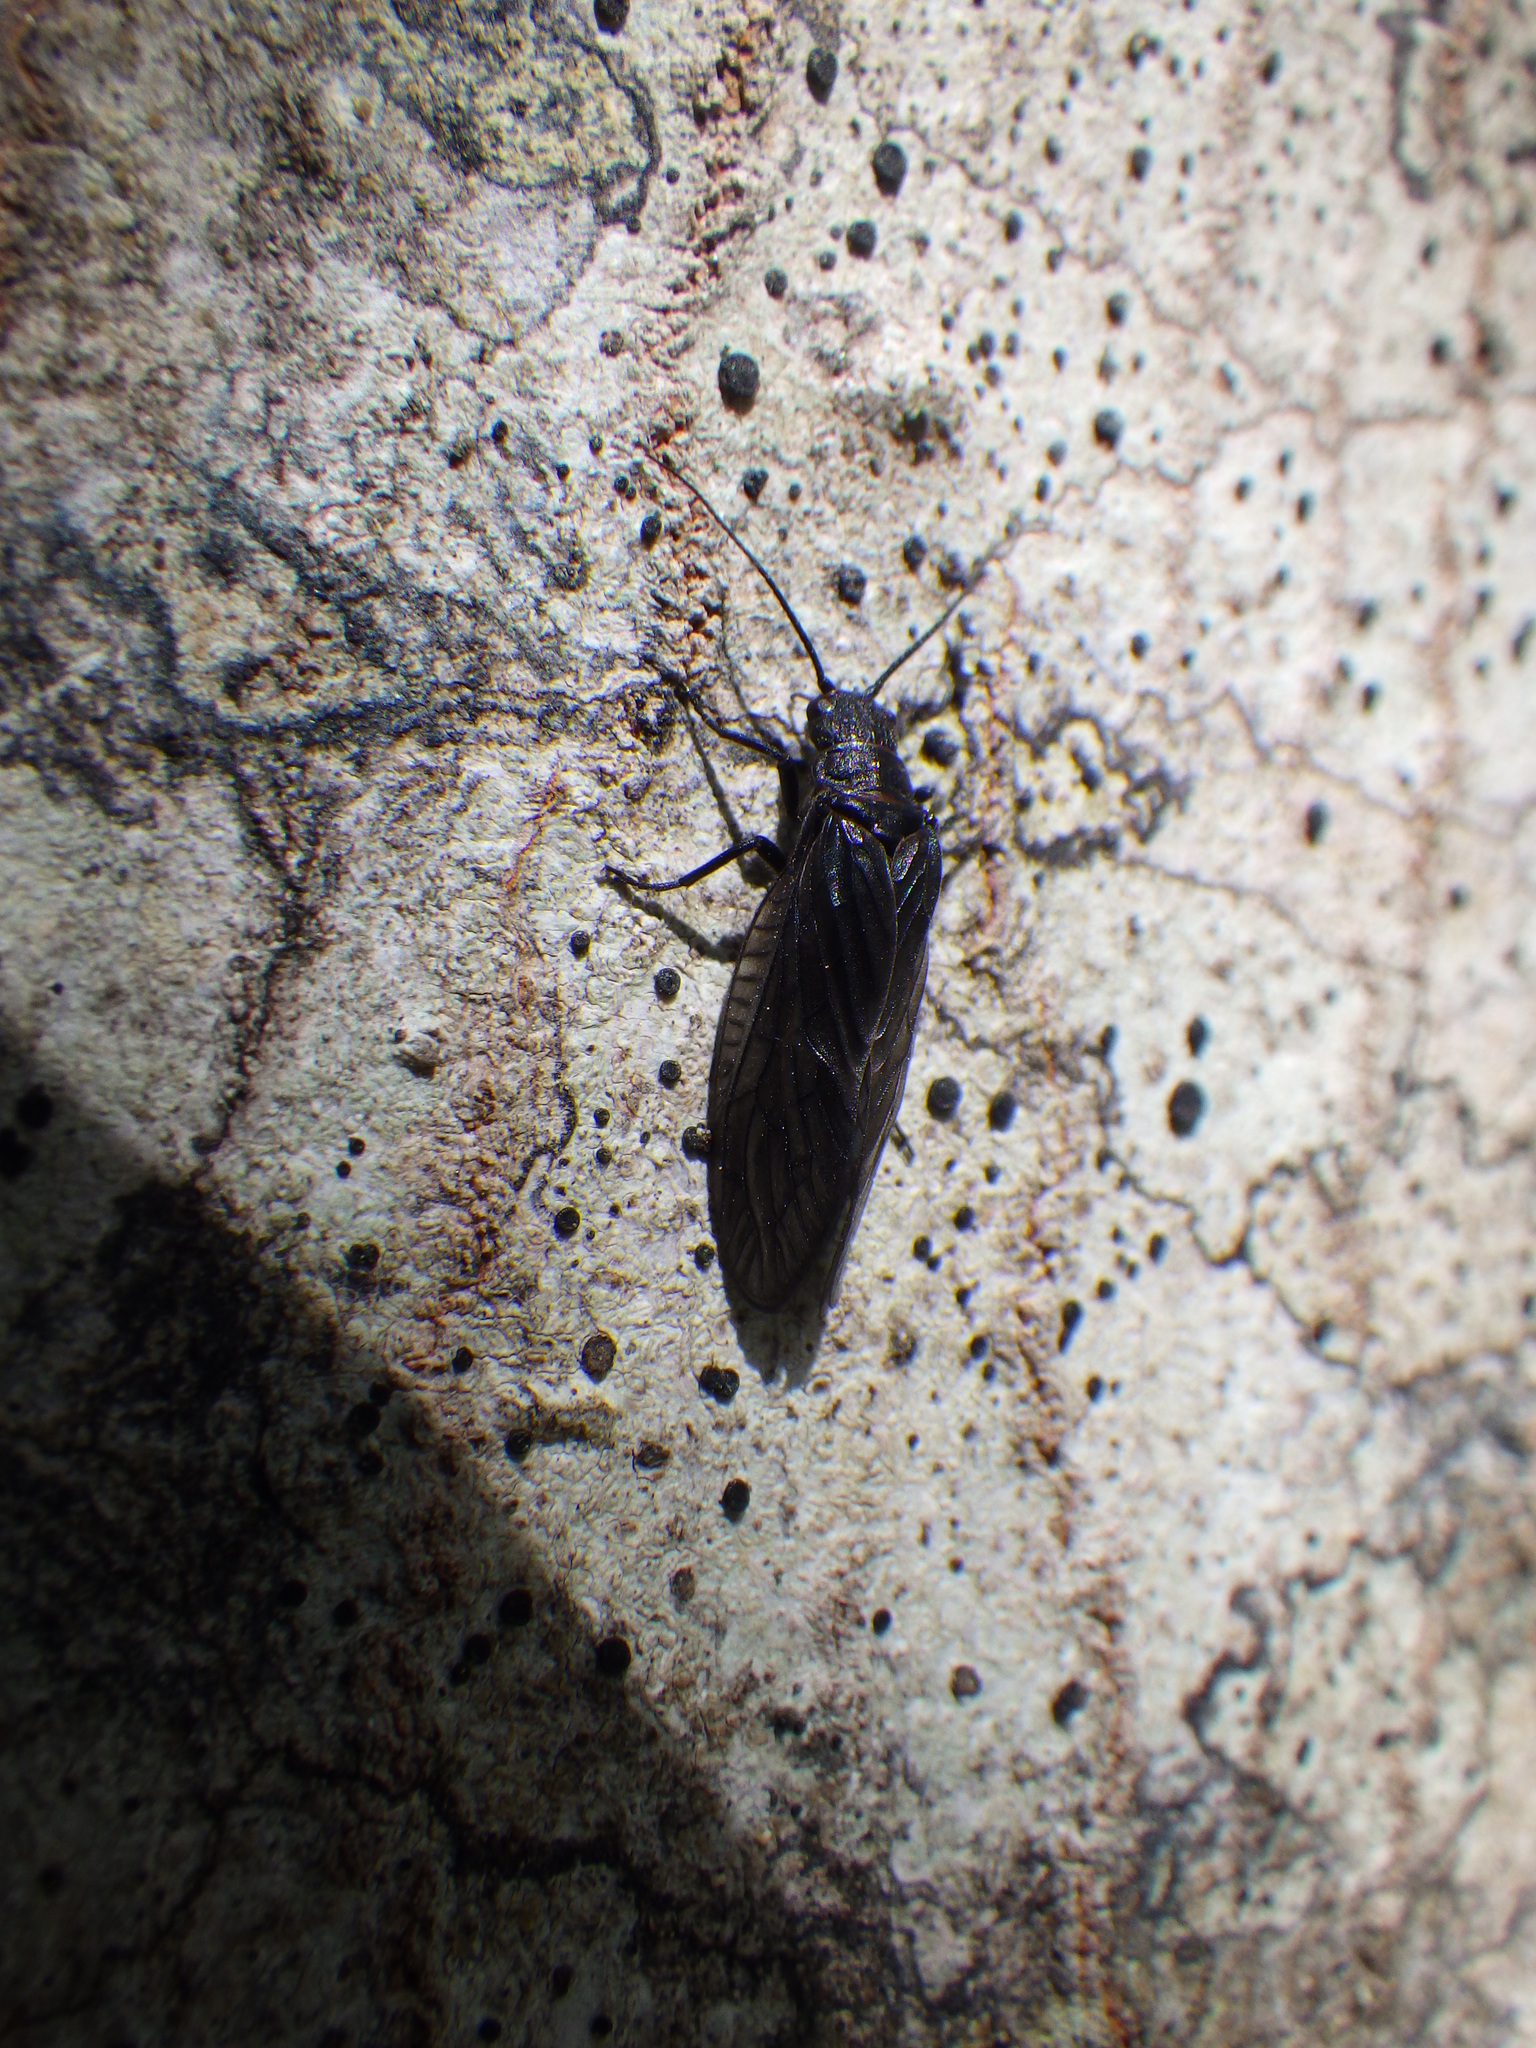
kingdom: Animalia
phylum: Arthropoda
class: Insecta
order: Megaloptera
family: Sialidae
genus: Sialis
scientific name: Sialis
